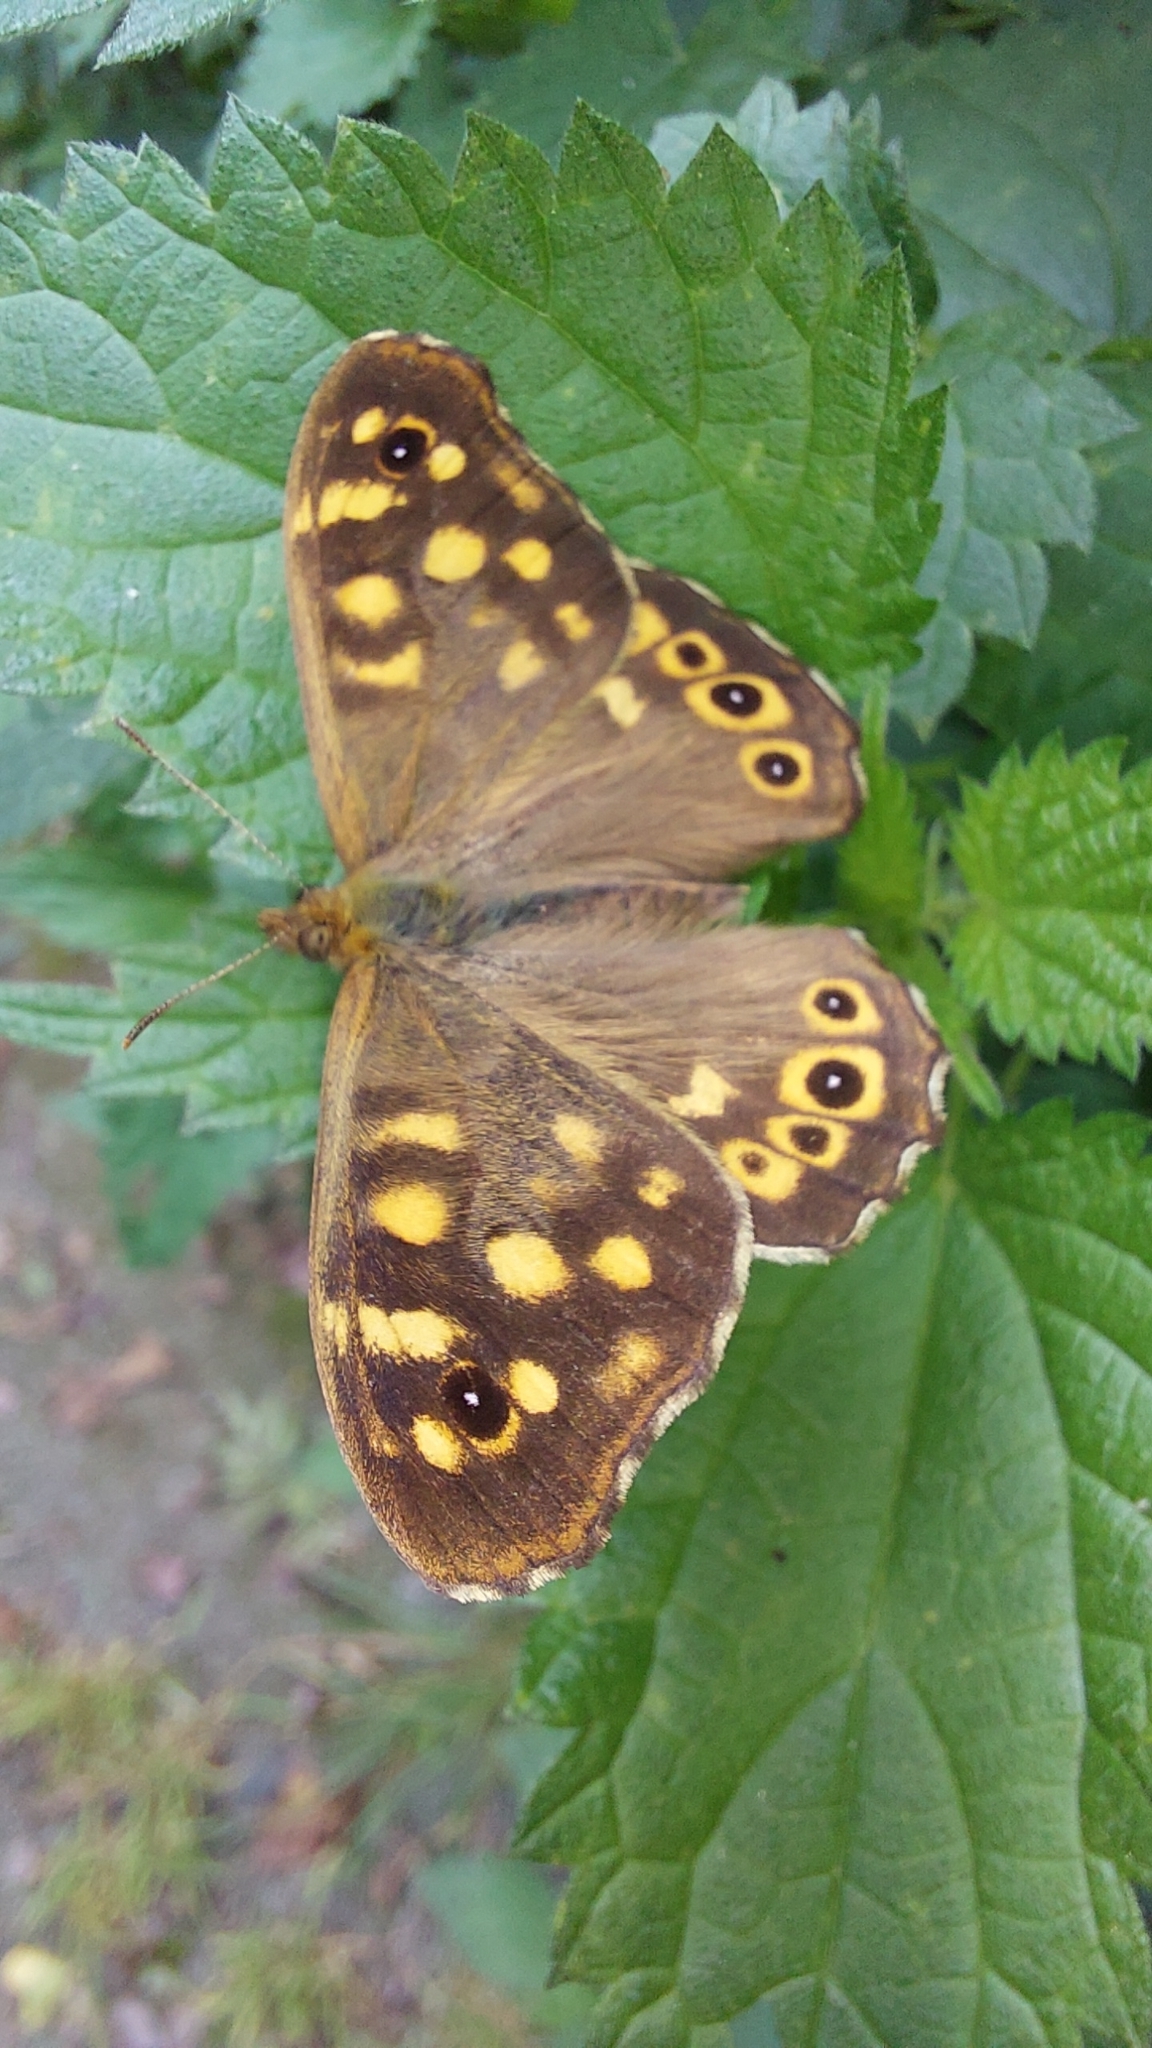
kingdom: Animalia
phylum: Arthropoda
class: Insecta
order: Lepidoptera
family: Nymphalidae
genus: Pararge
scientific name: Pararge aegeria
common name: Speckled wood
